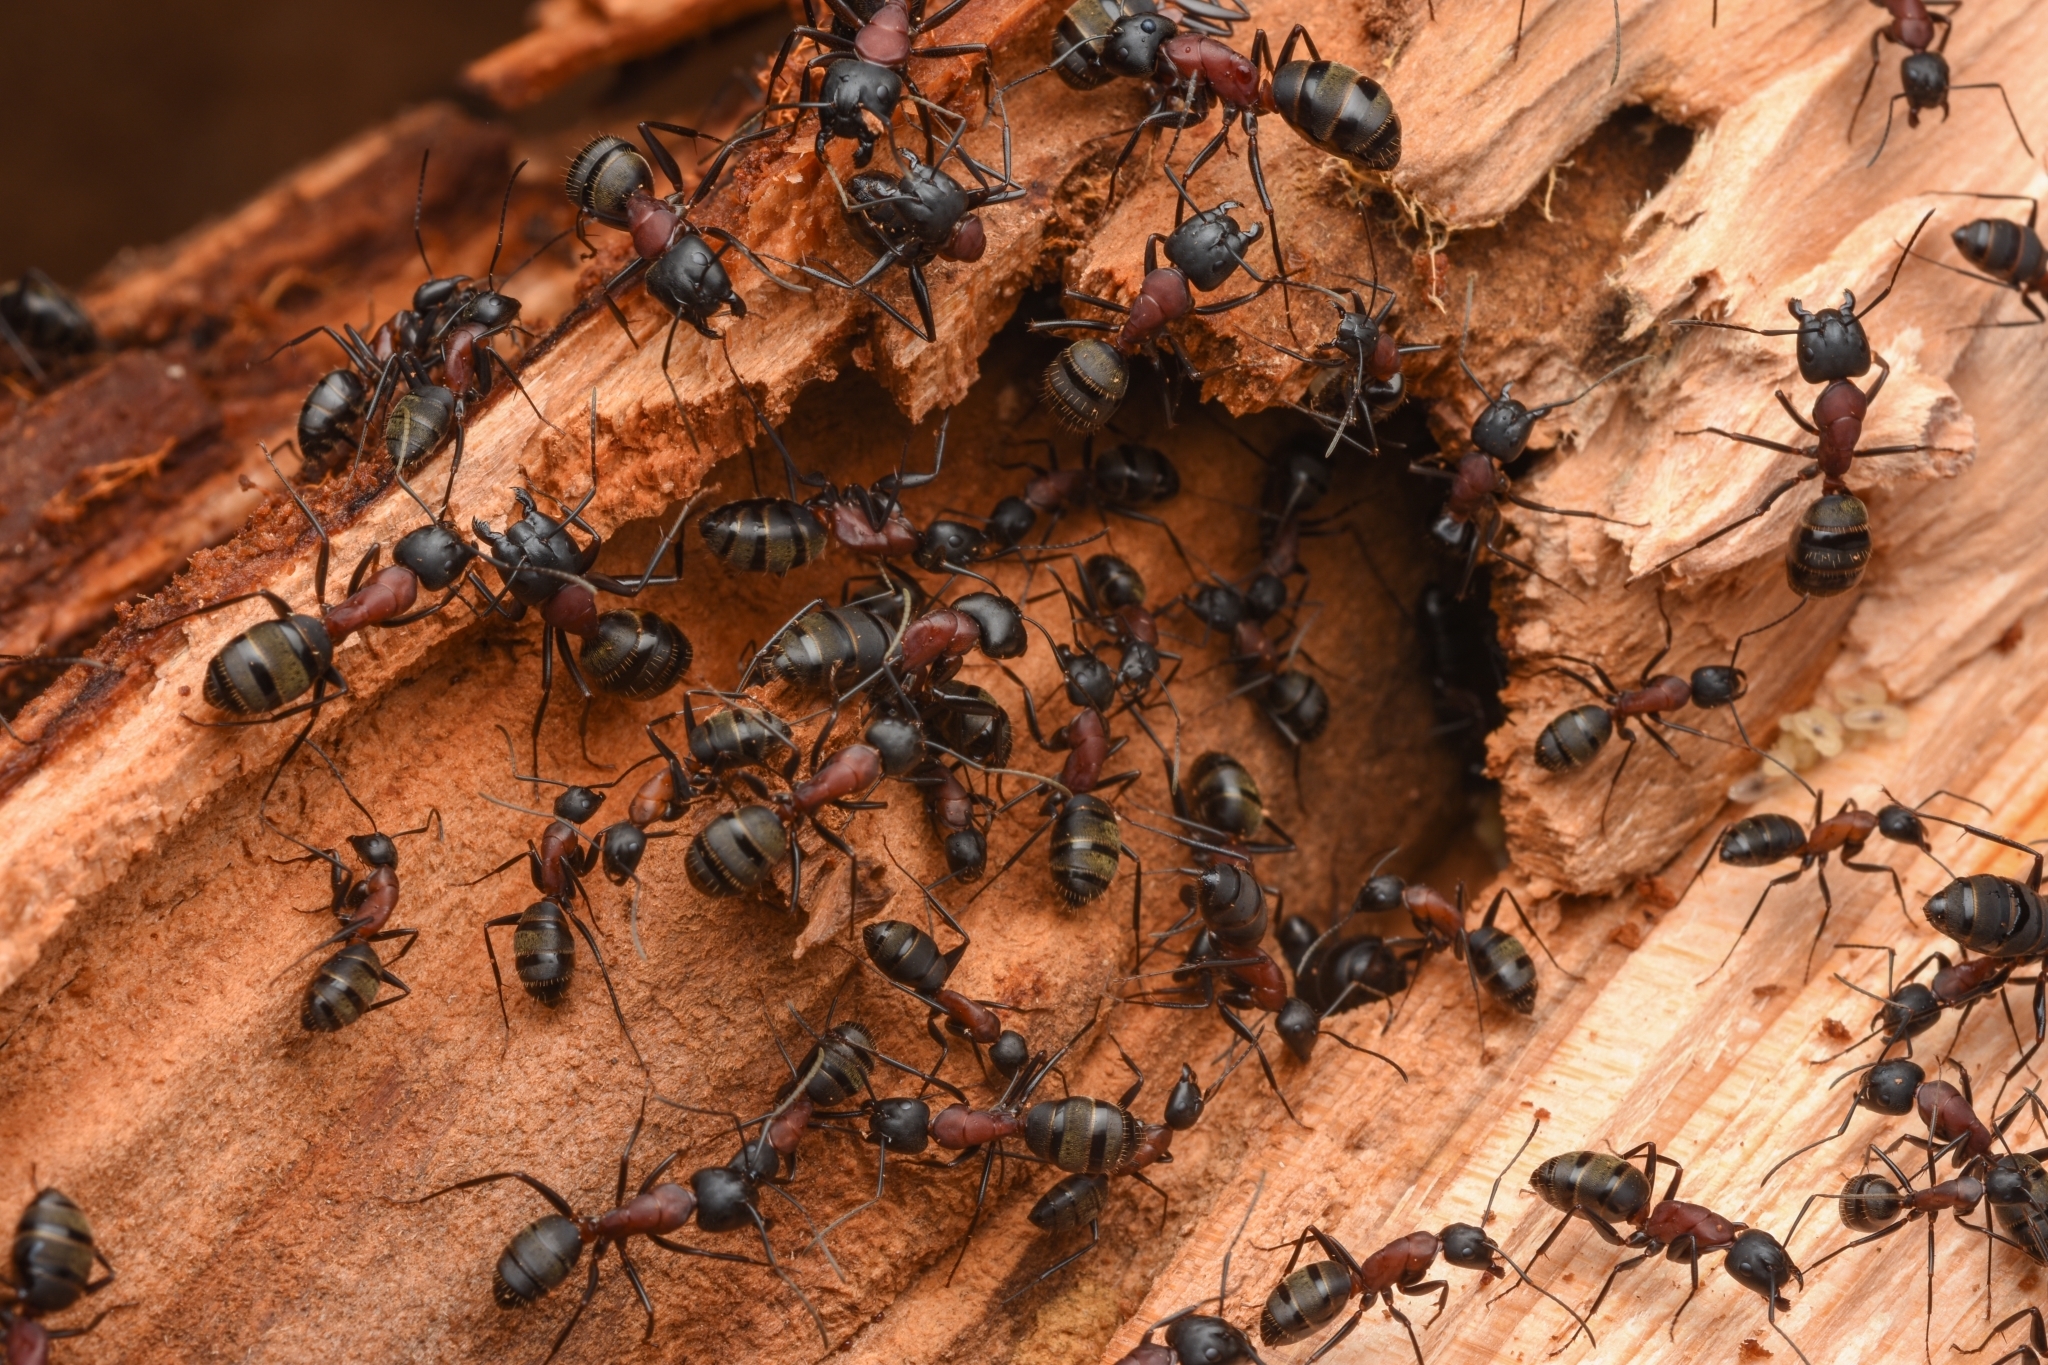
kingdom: Animalia
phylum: Arthropoda
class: Insecta
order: Hymenoptera
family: Formicidae
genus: Camponotus
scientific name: Camponotus atrox
